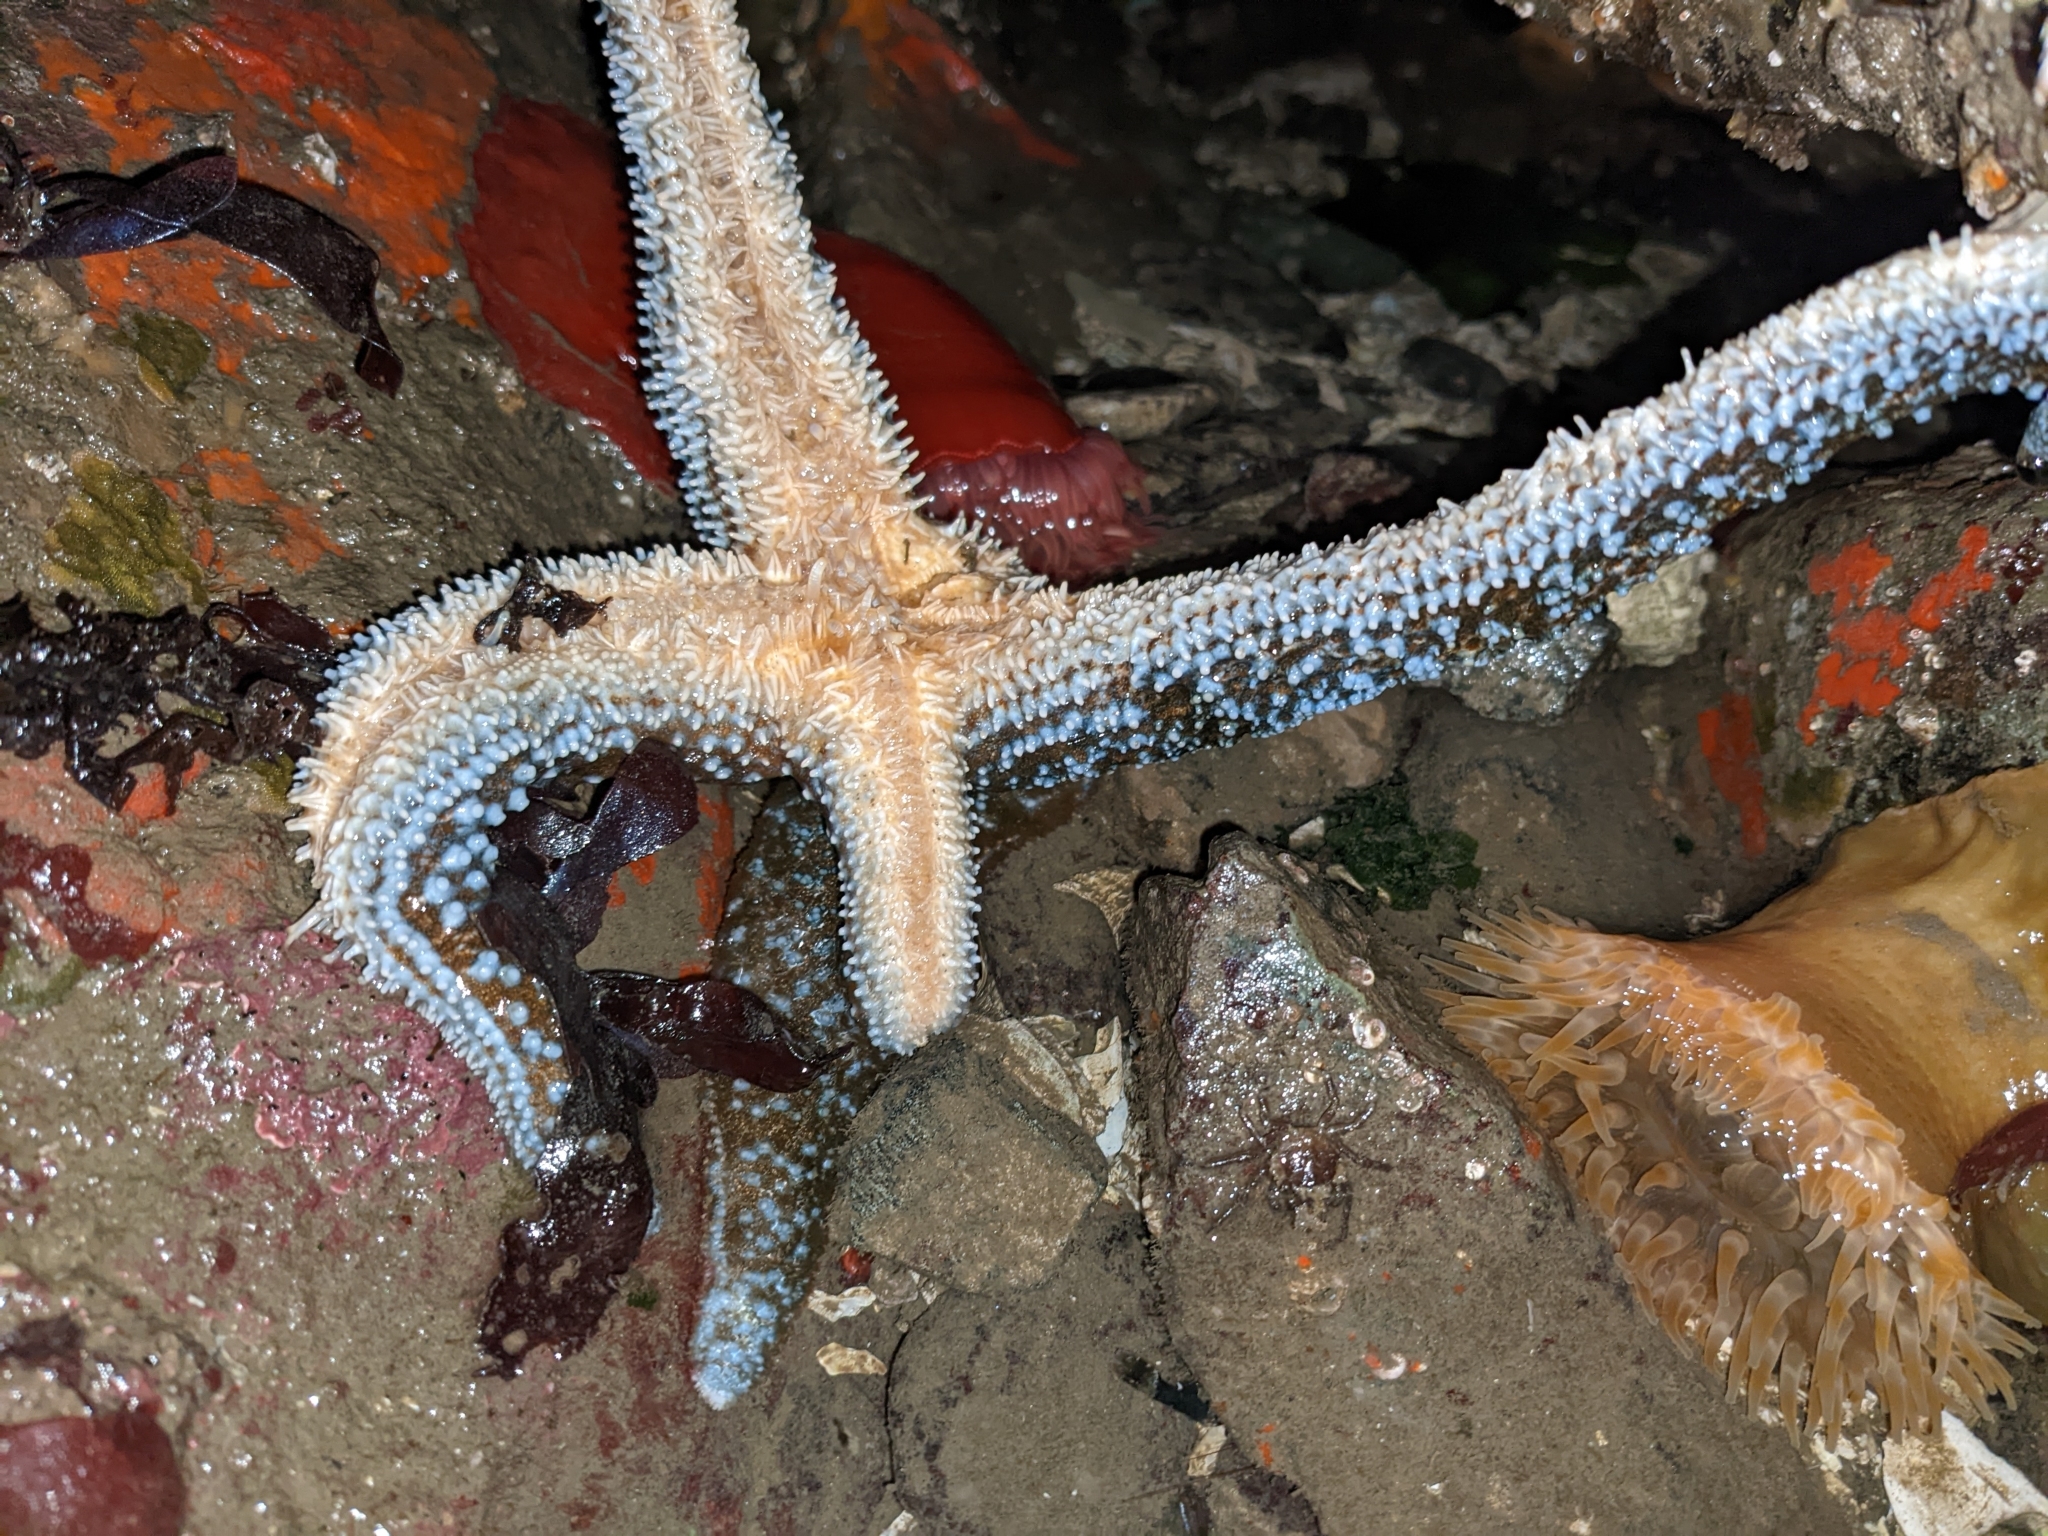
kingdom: Animalia
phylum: Echinodermata
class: Asteroidea
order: Forcipulatida
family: Asteriidae
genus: Evasterias
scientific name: Evasterias troschelii
